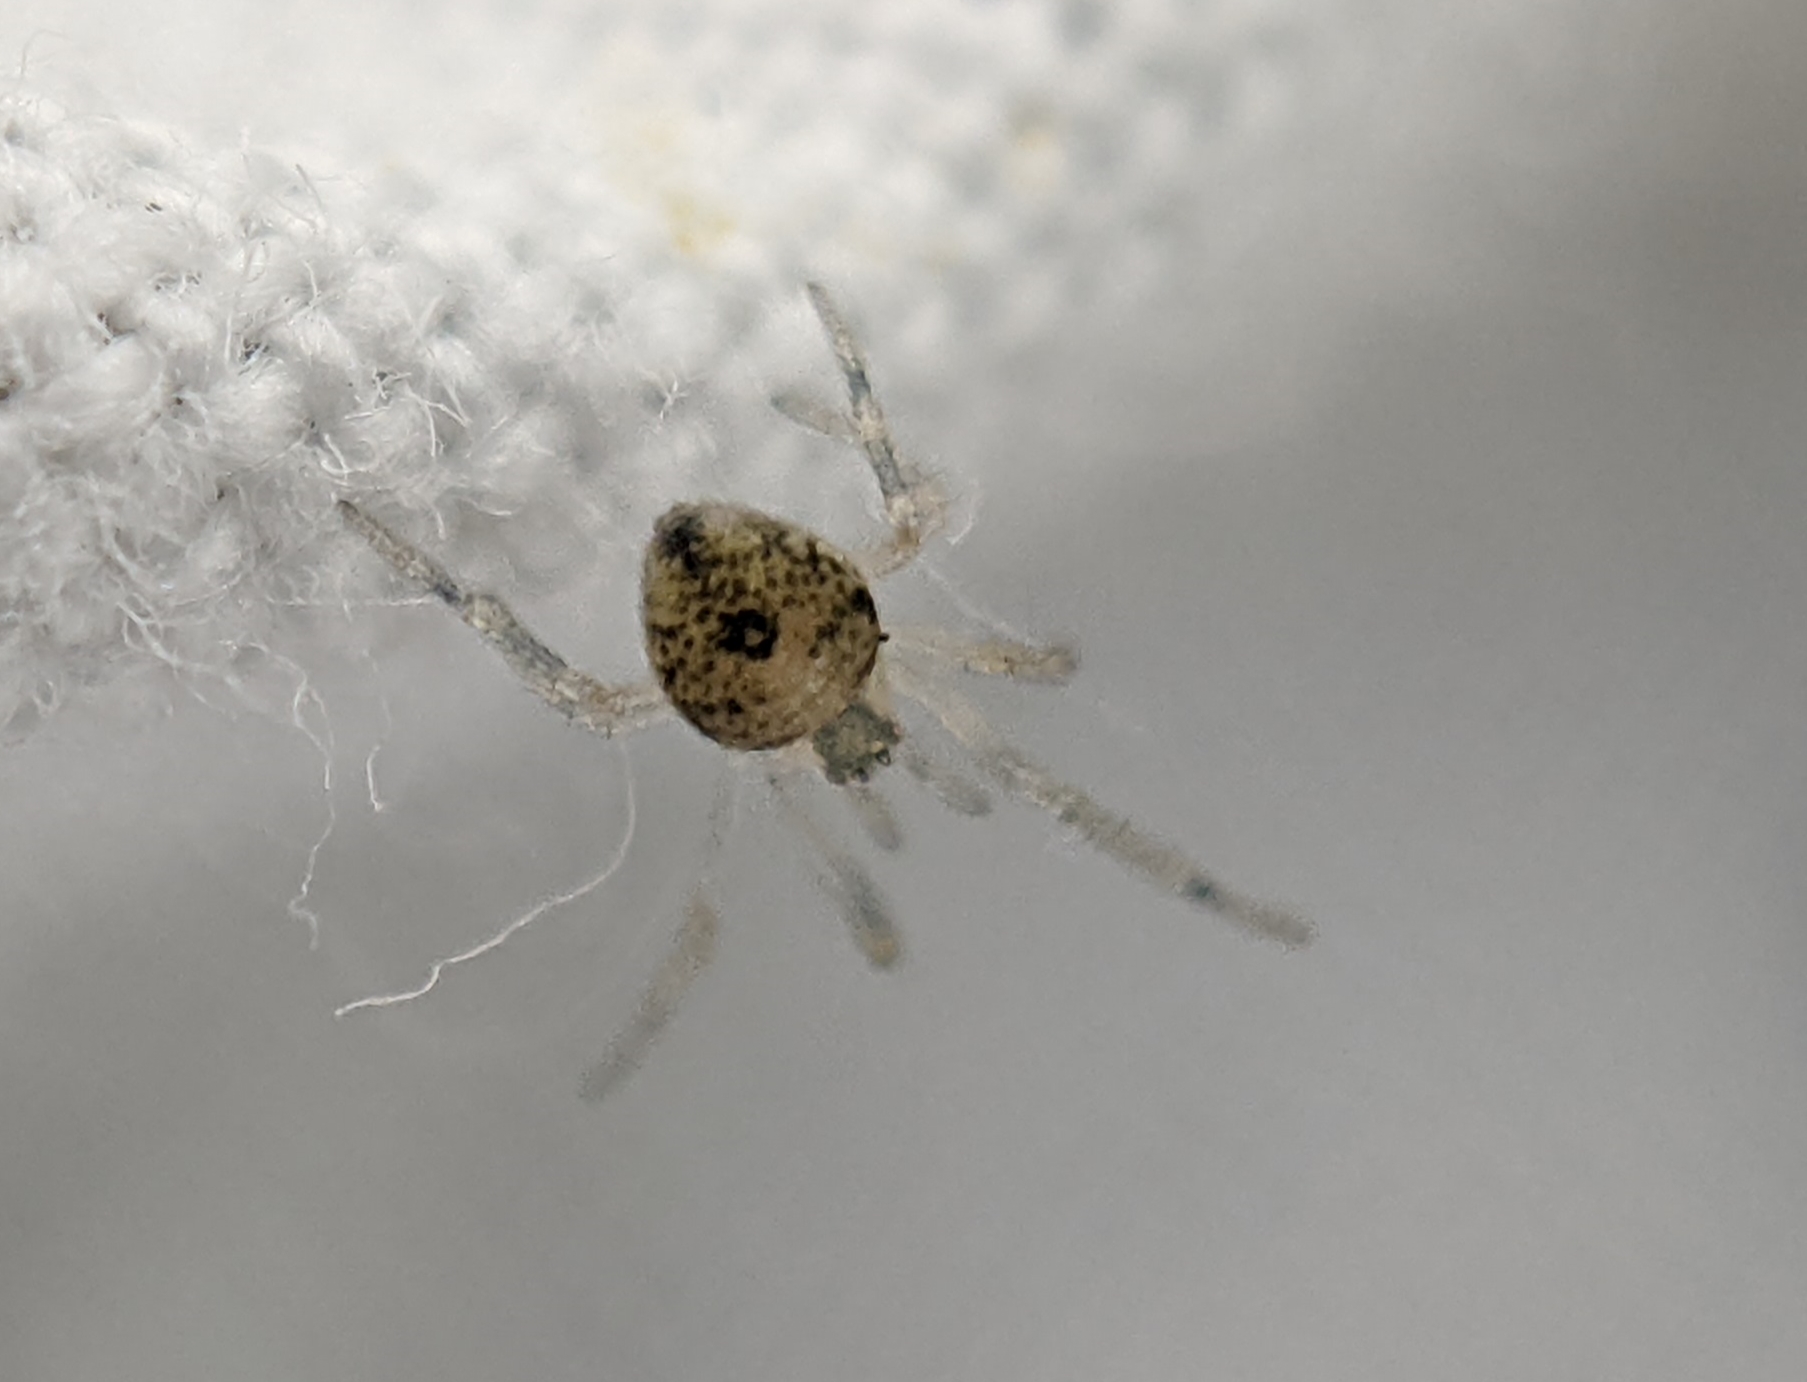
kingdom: Animalia
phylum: Arthropoda
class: Arachnida
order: Araneae
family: Theridiidae
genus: Paidiscura
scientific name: Paidiscura pallens
